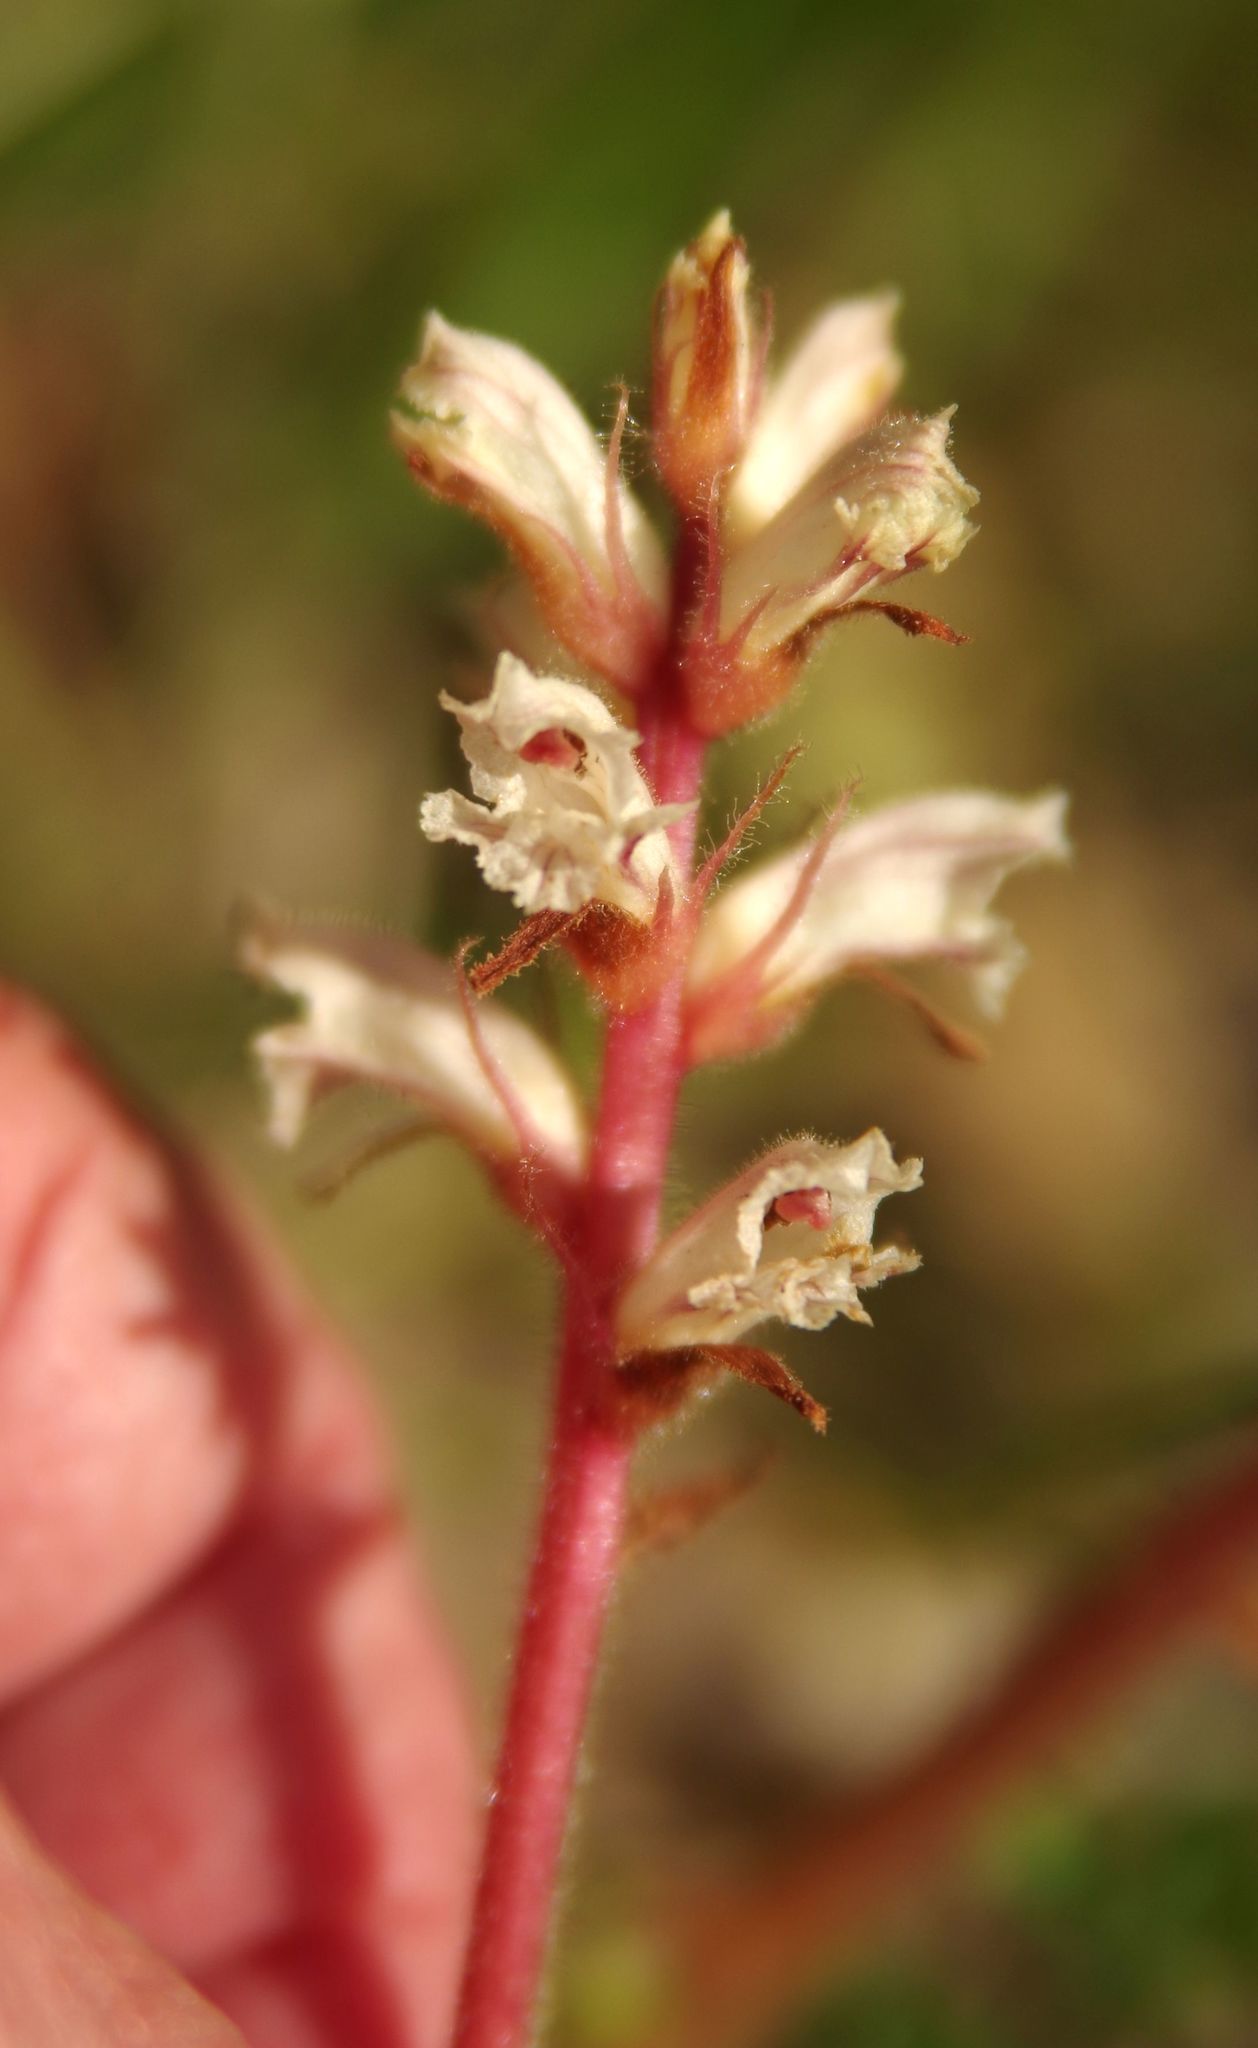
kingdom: Plantae
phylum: Tracheophyta
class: Magnoliopsida
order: Lamiales
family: Orobanchaceae
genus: Orobanche
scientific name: Orobanche minor
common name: Common broomrape
